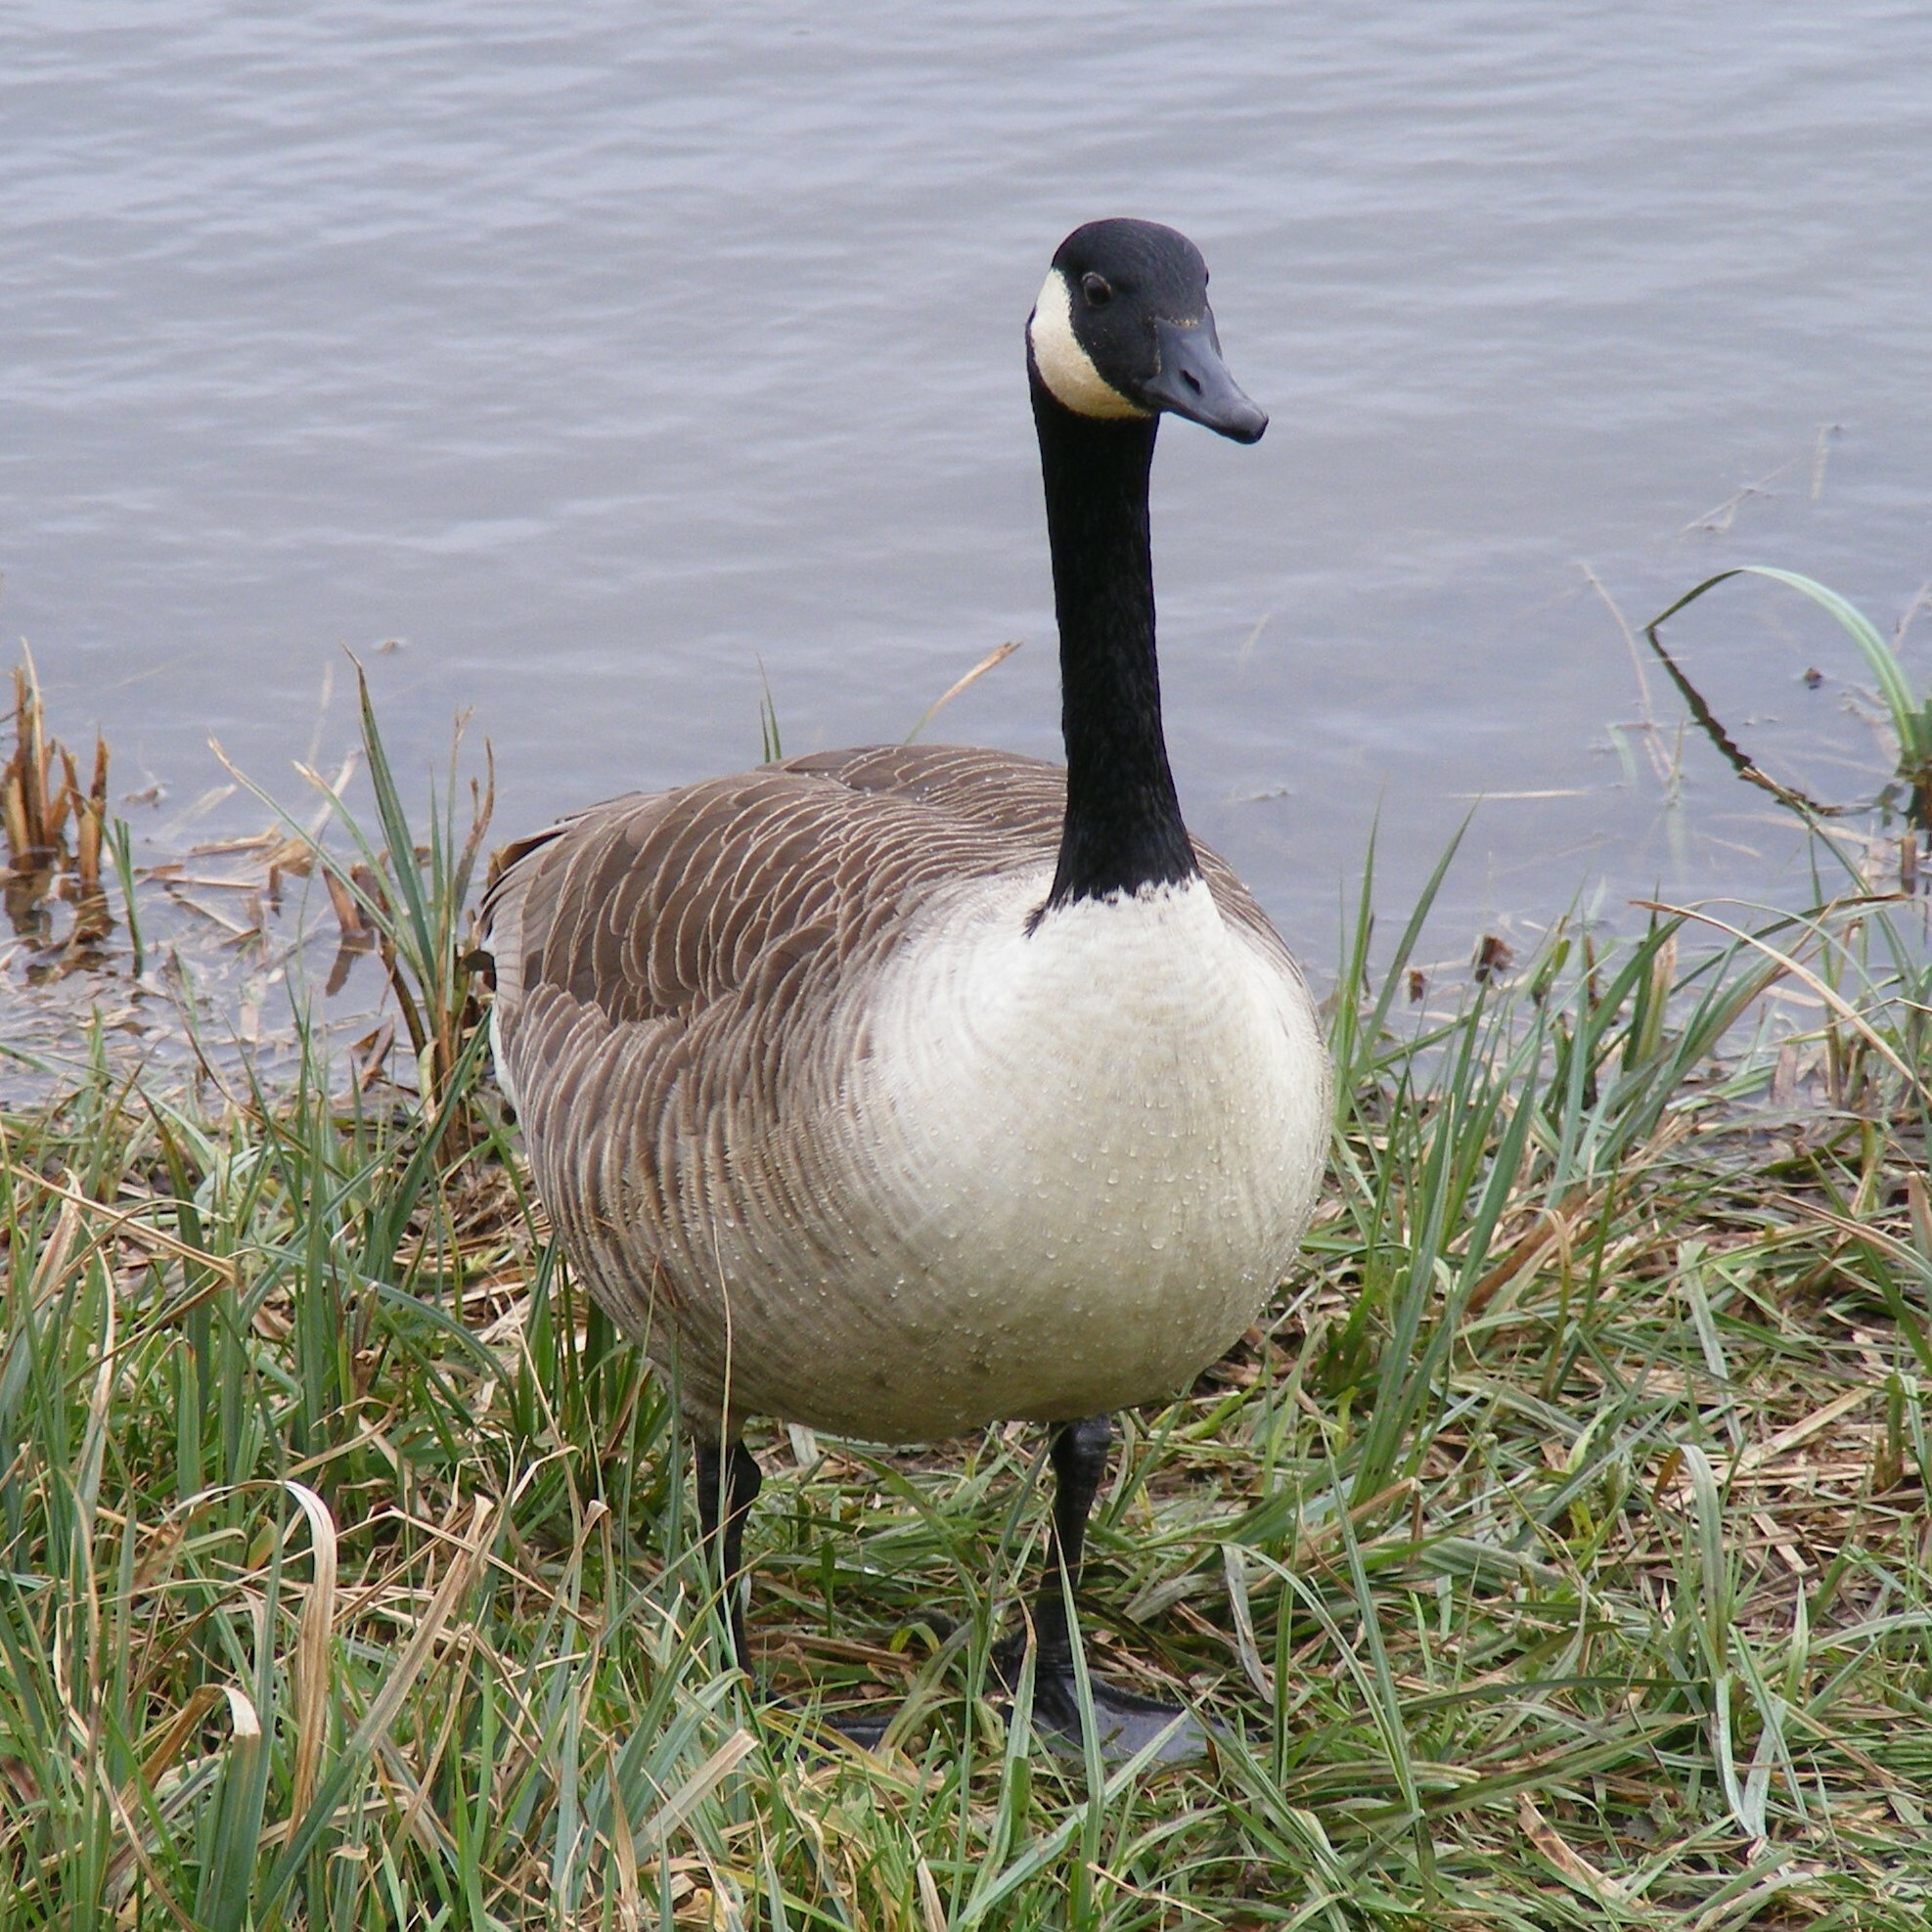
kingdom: Animalia
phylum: Chordata
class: Aves
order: Anseriformes
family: Anatidae
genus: Branta
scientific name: Branta canadensis
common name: Canada goose
